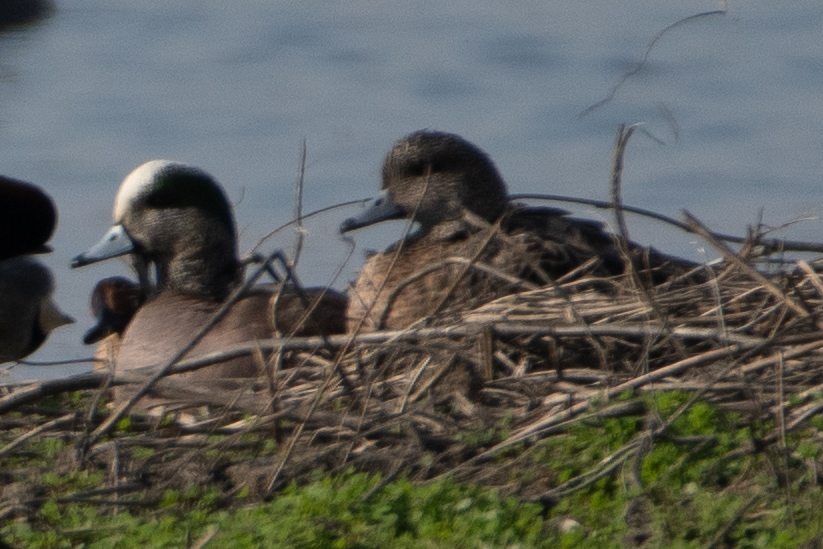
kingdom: Animalia
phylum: Chordata
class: Aves
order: Anseriformes
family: Anatidae
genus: Mareca
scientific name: Mareca americana
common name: American wigeon
